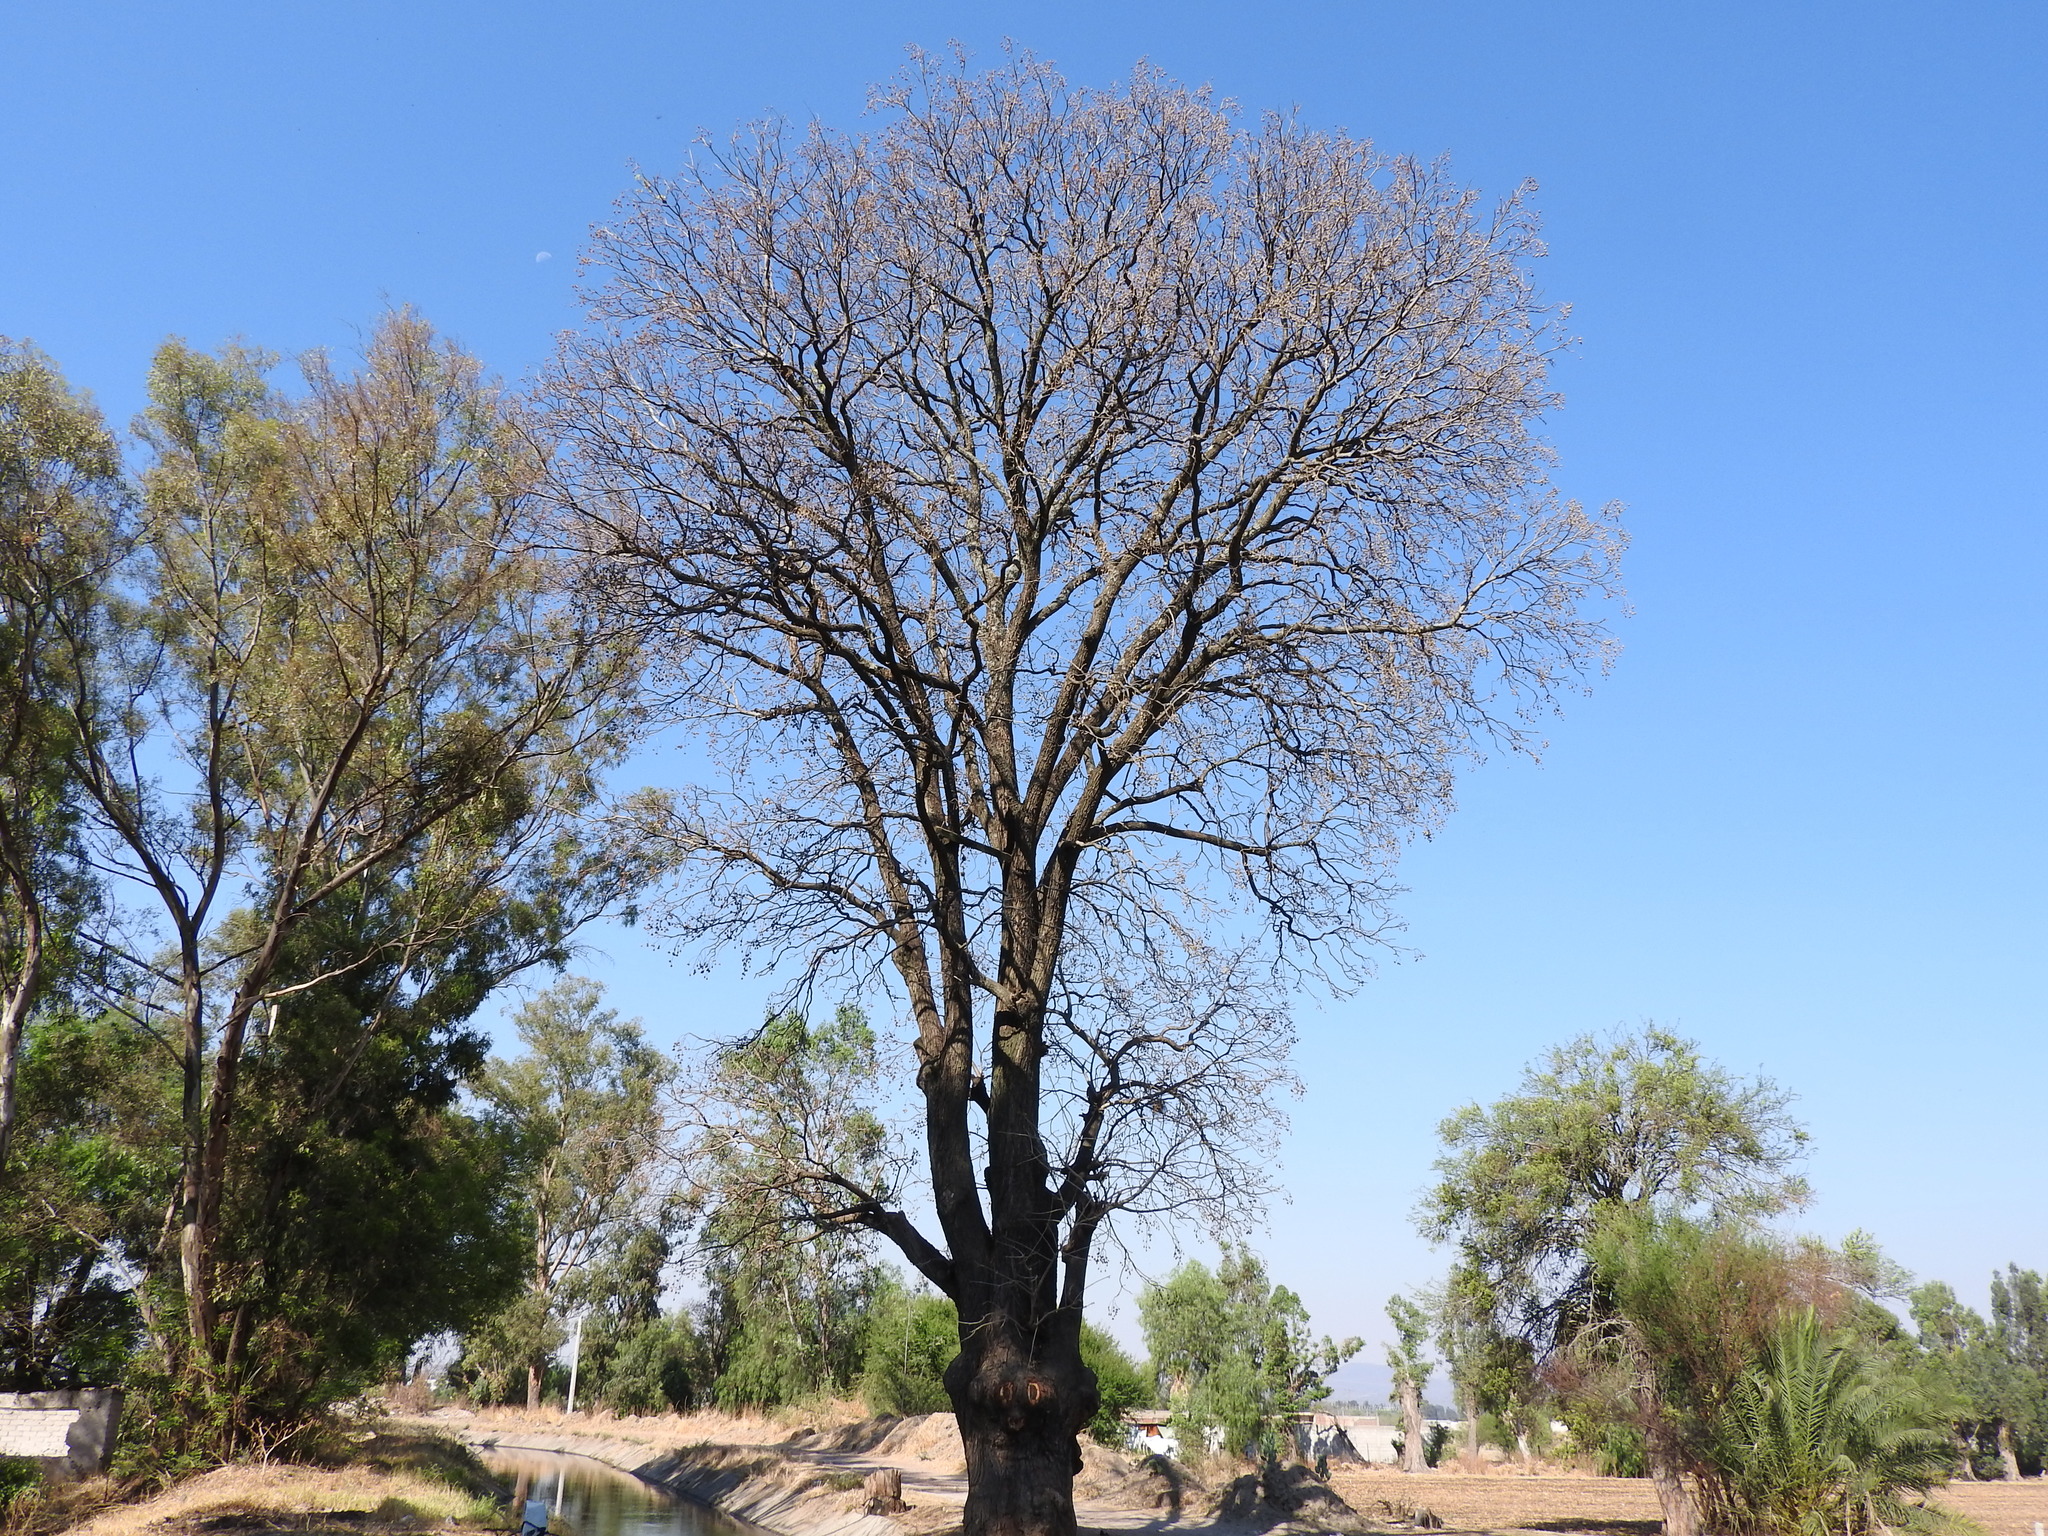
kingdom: Plantae
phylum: Tracheophyta
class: Magnoliopsida
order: Sapindales
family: Meliaceae
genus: Cedrela
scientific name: Cedrela odorata
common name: Red cedar
